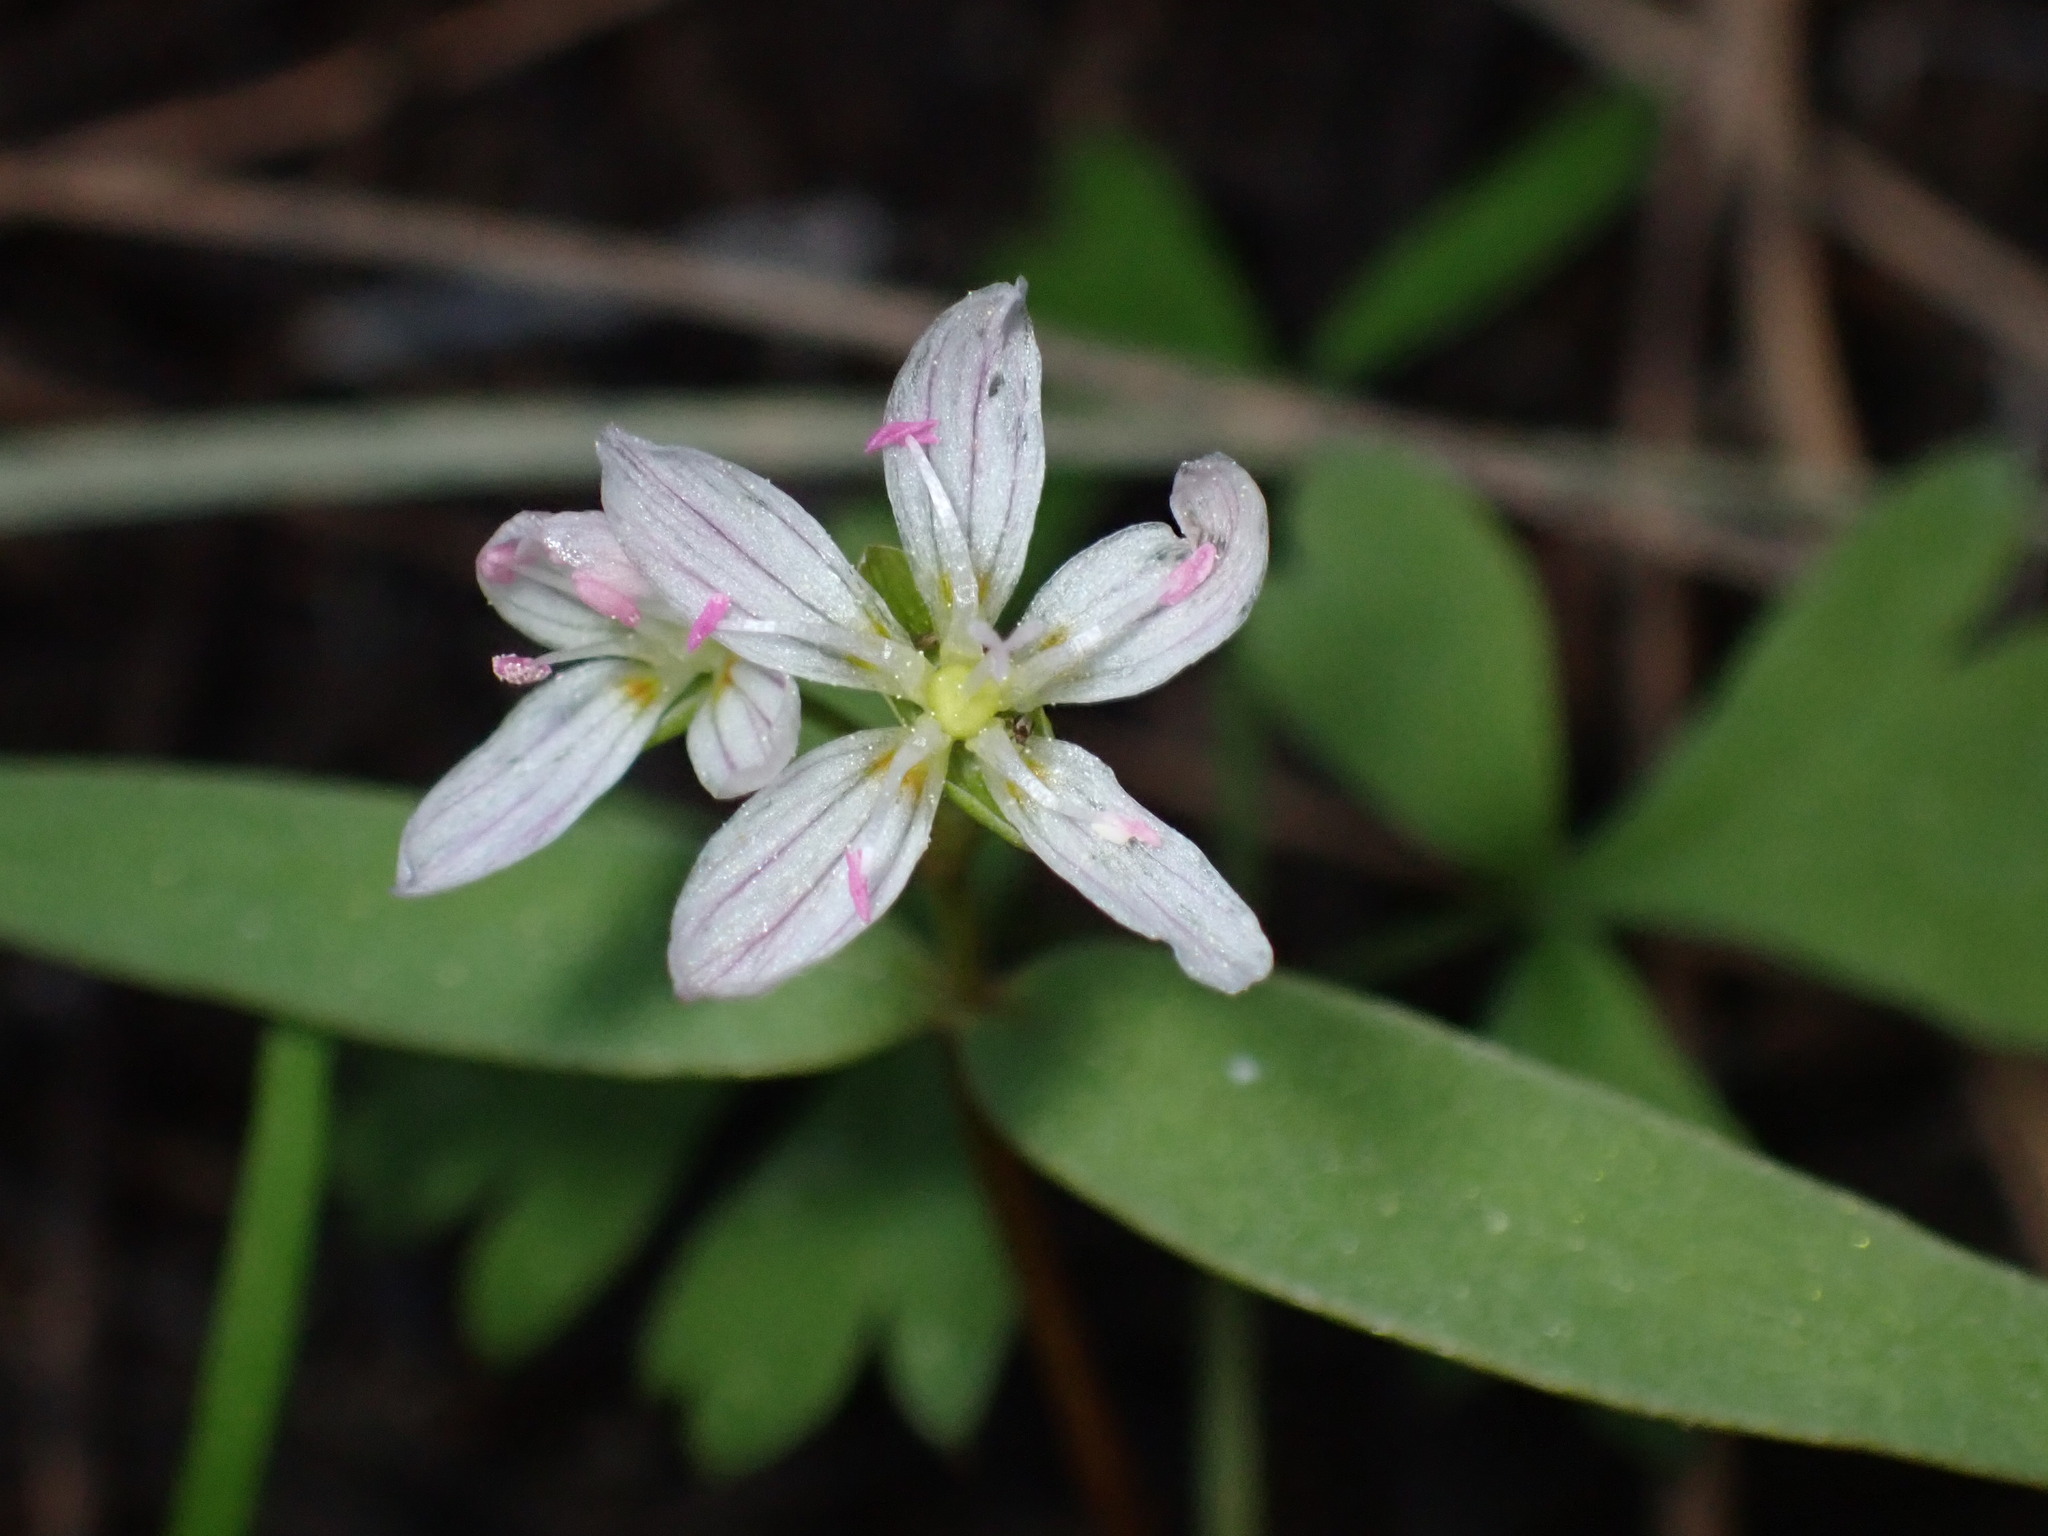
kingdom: Plantae
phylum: Tracheophyta
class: Magnoliopsida
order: Caryophyllales
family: Montiaceae
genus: Claytonia
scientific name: Claytonia lanceolata
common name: Western spring-beauty
